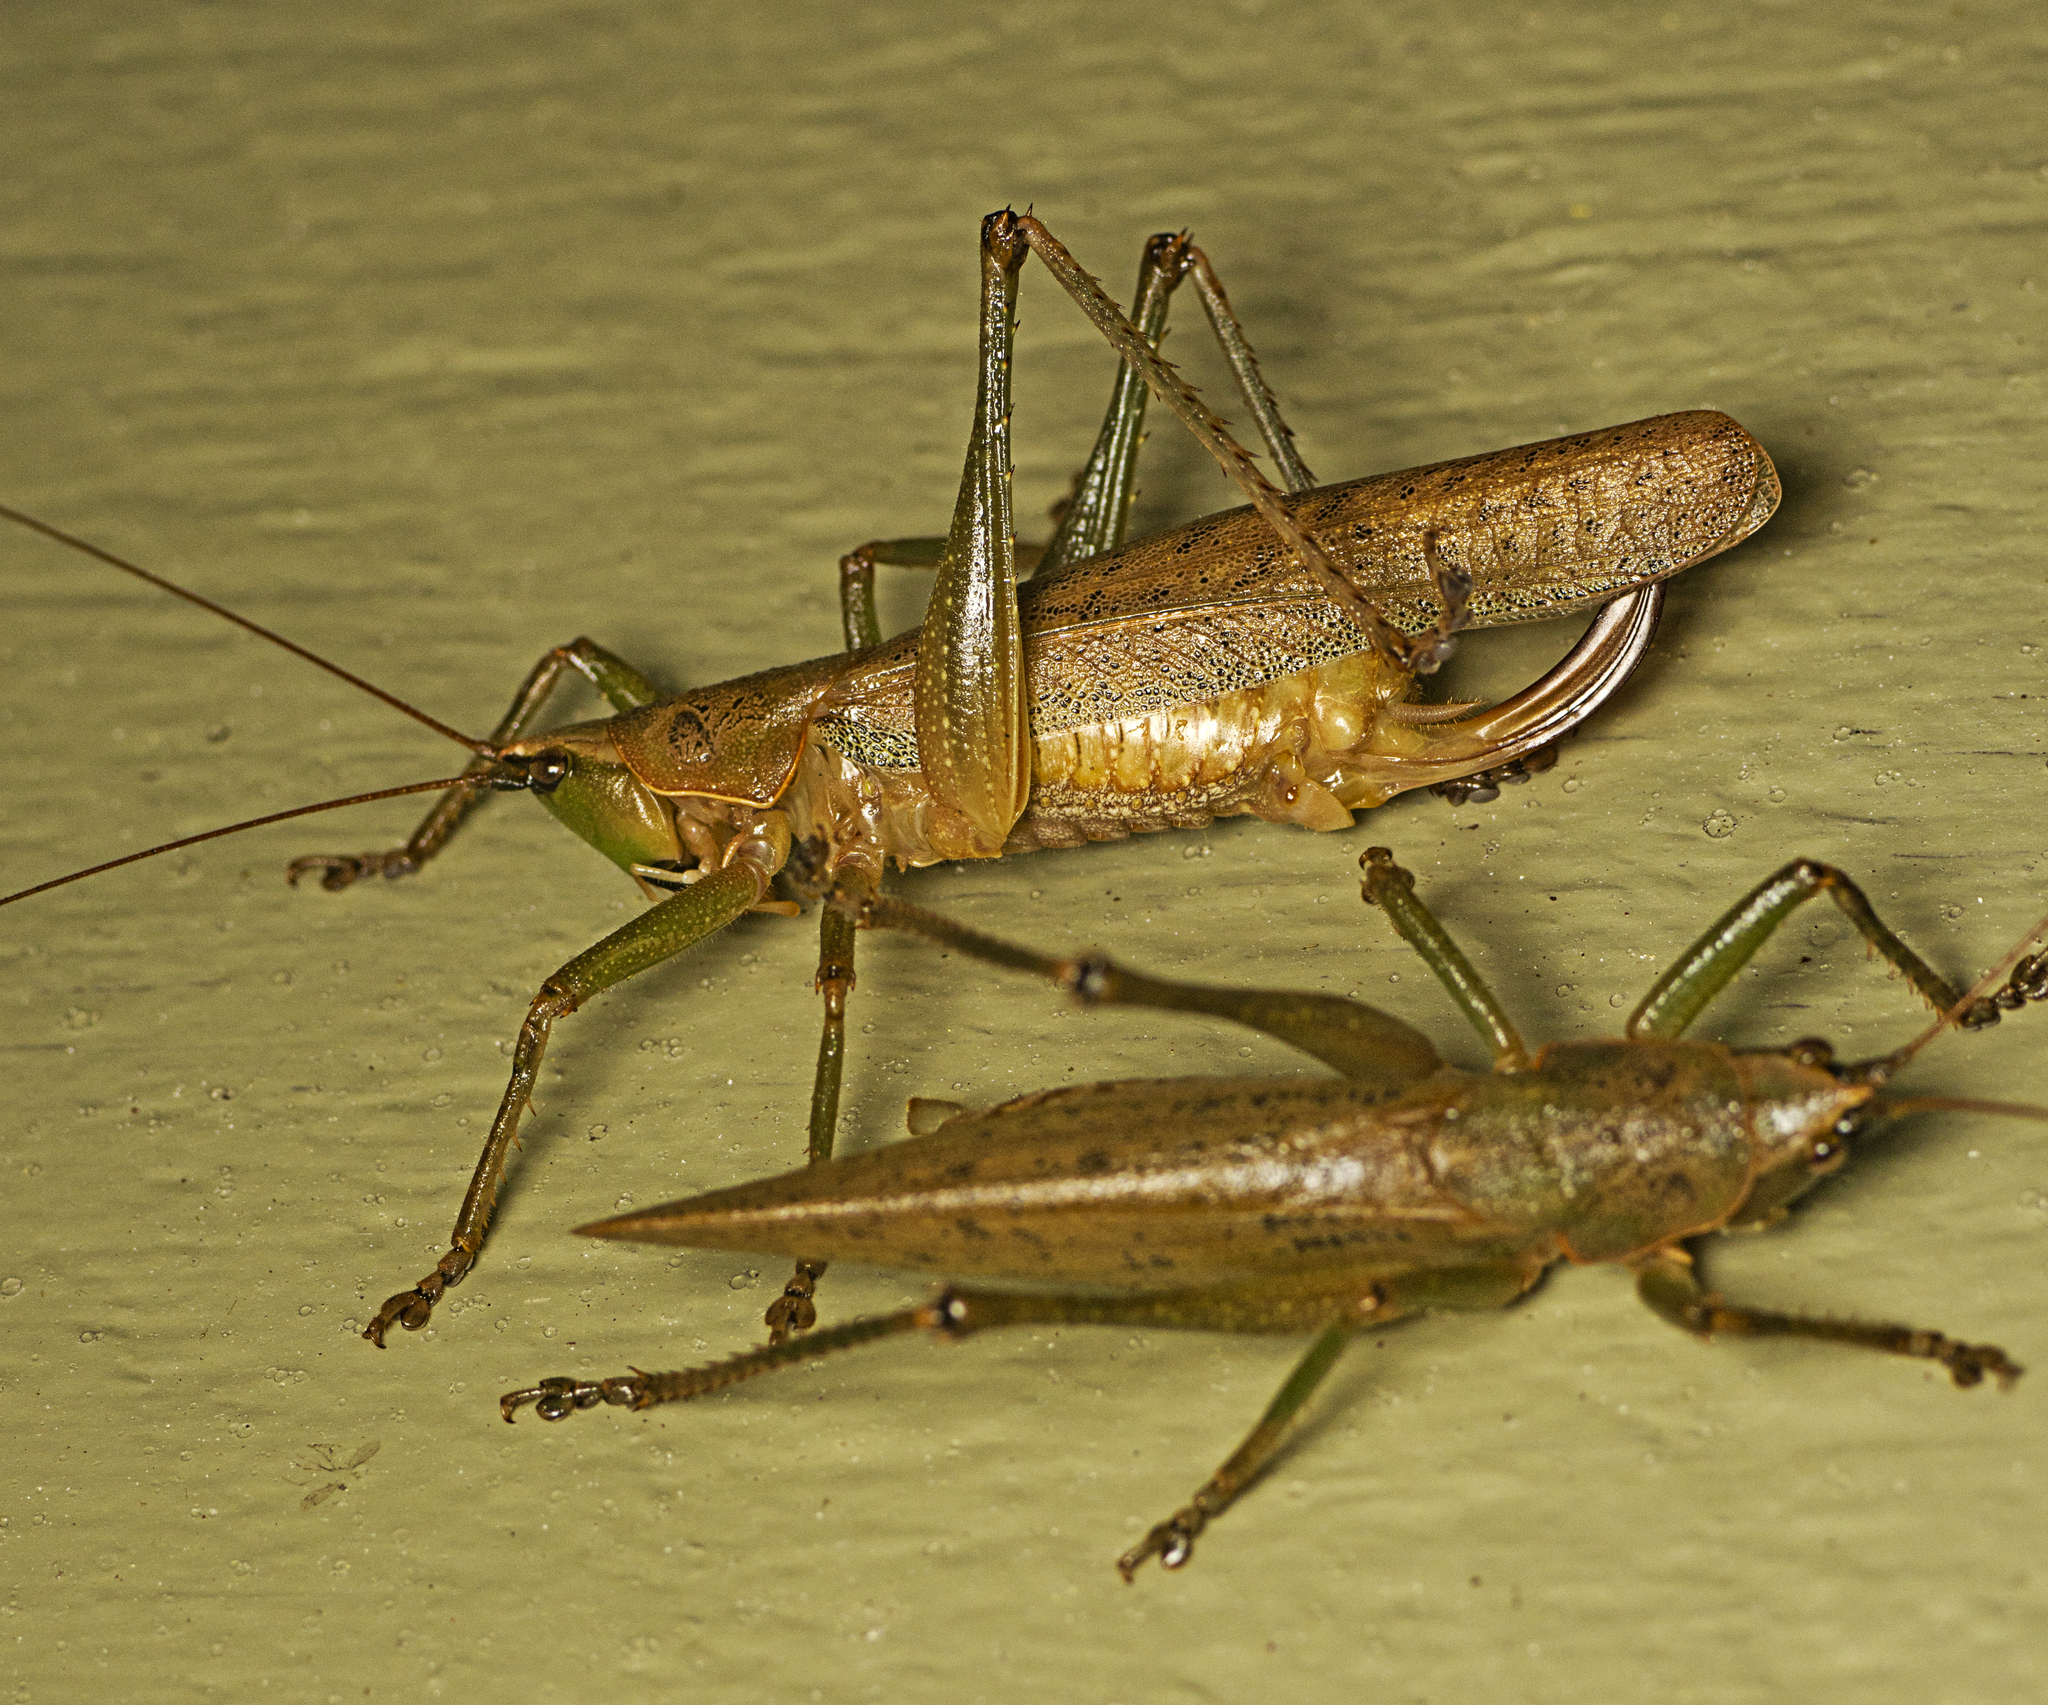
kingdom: Animalia
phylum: Arthropoda
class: Insecta
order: Orthoptera
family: Tettigoniidae
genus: Austrosalomona
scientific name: Austrosalomona falcata
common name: Olive-green coastal katydid
